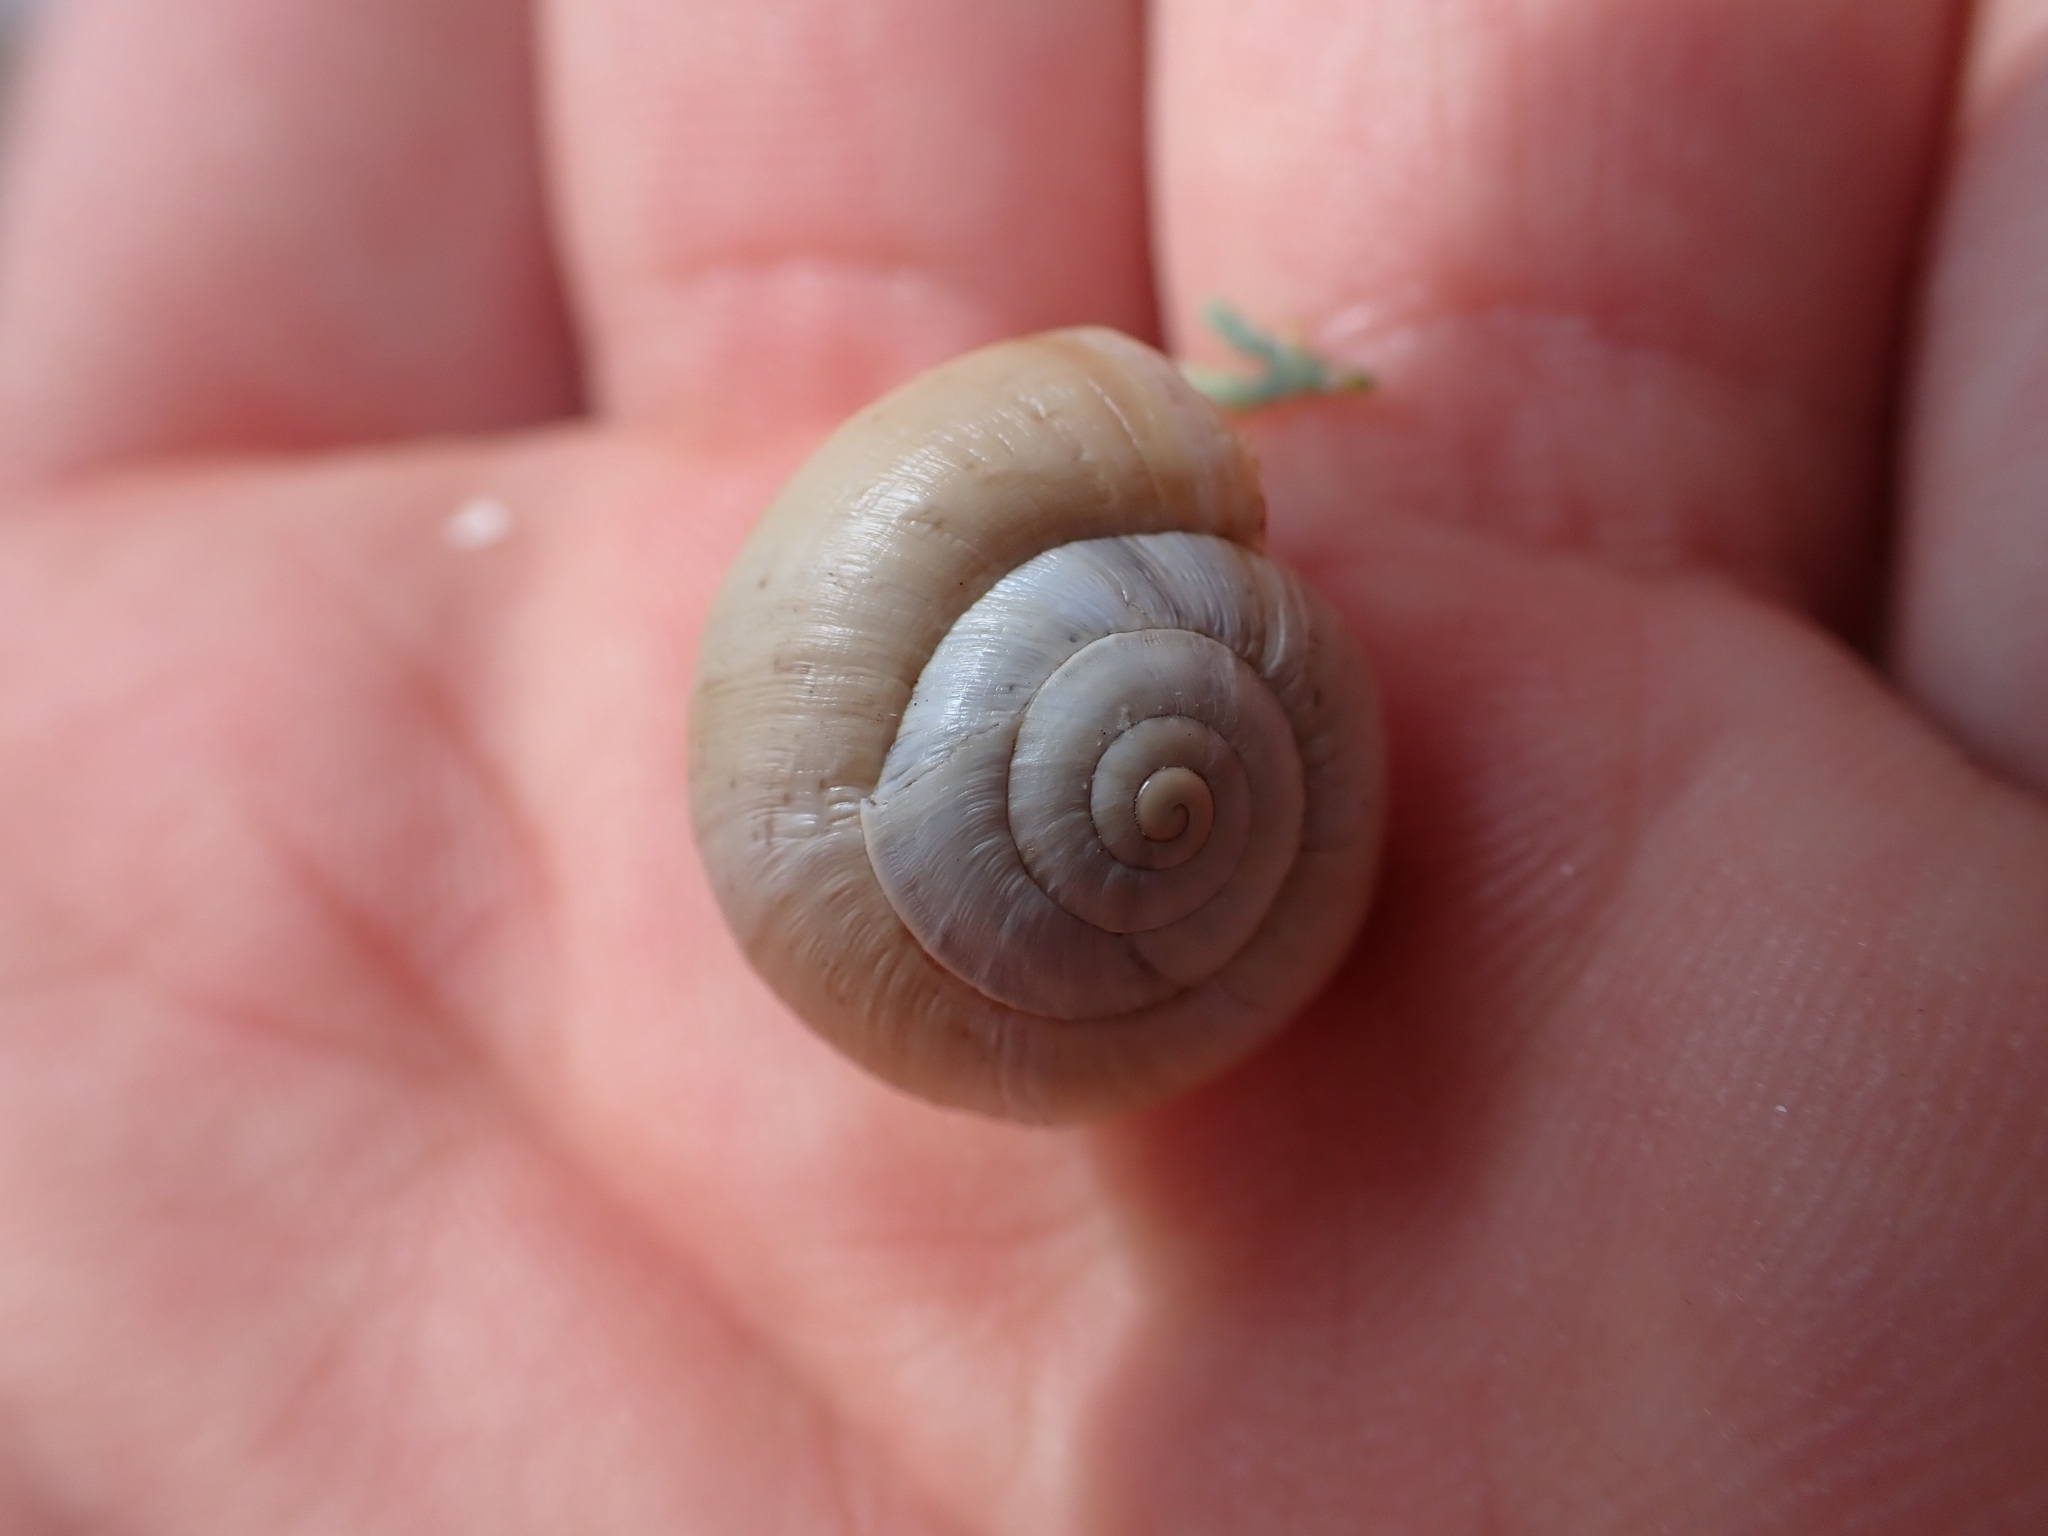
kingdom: Animalia
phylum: Mollusca
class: Gastropoda
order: Stylommatophora
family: Helicidae
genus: Theba
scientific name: Theba pisana
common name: White snail
